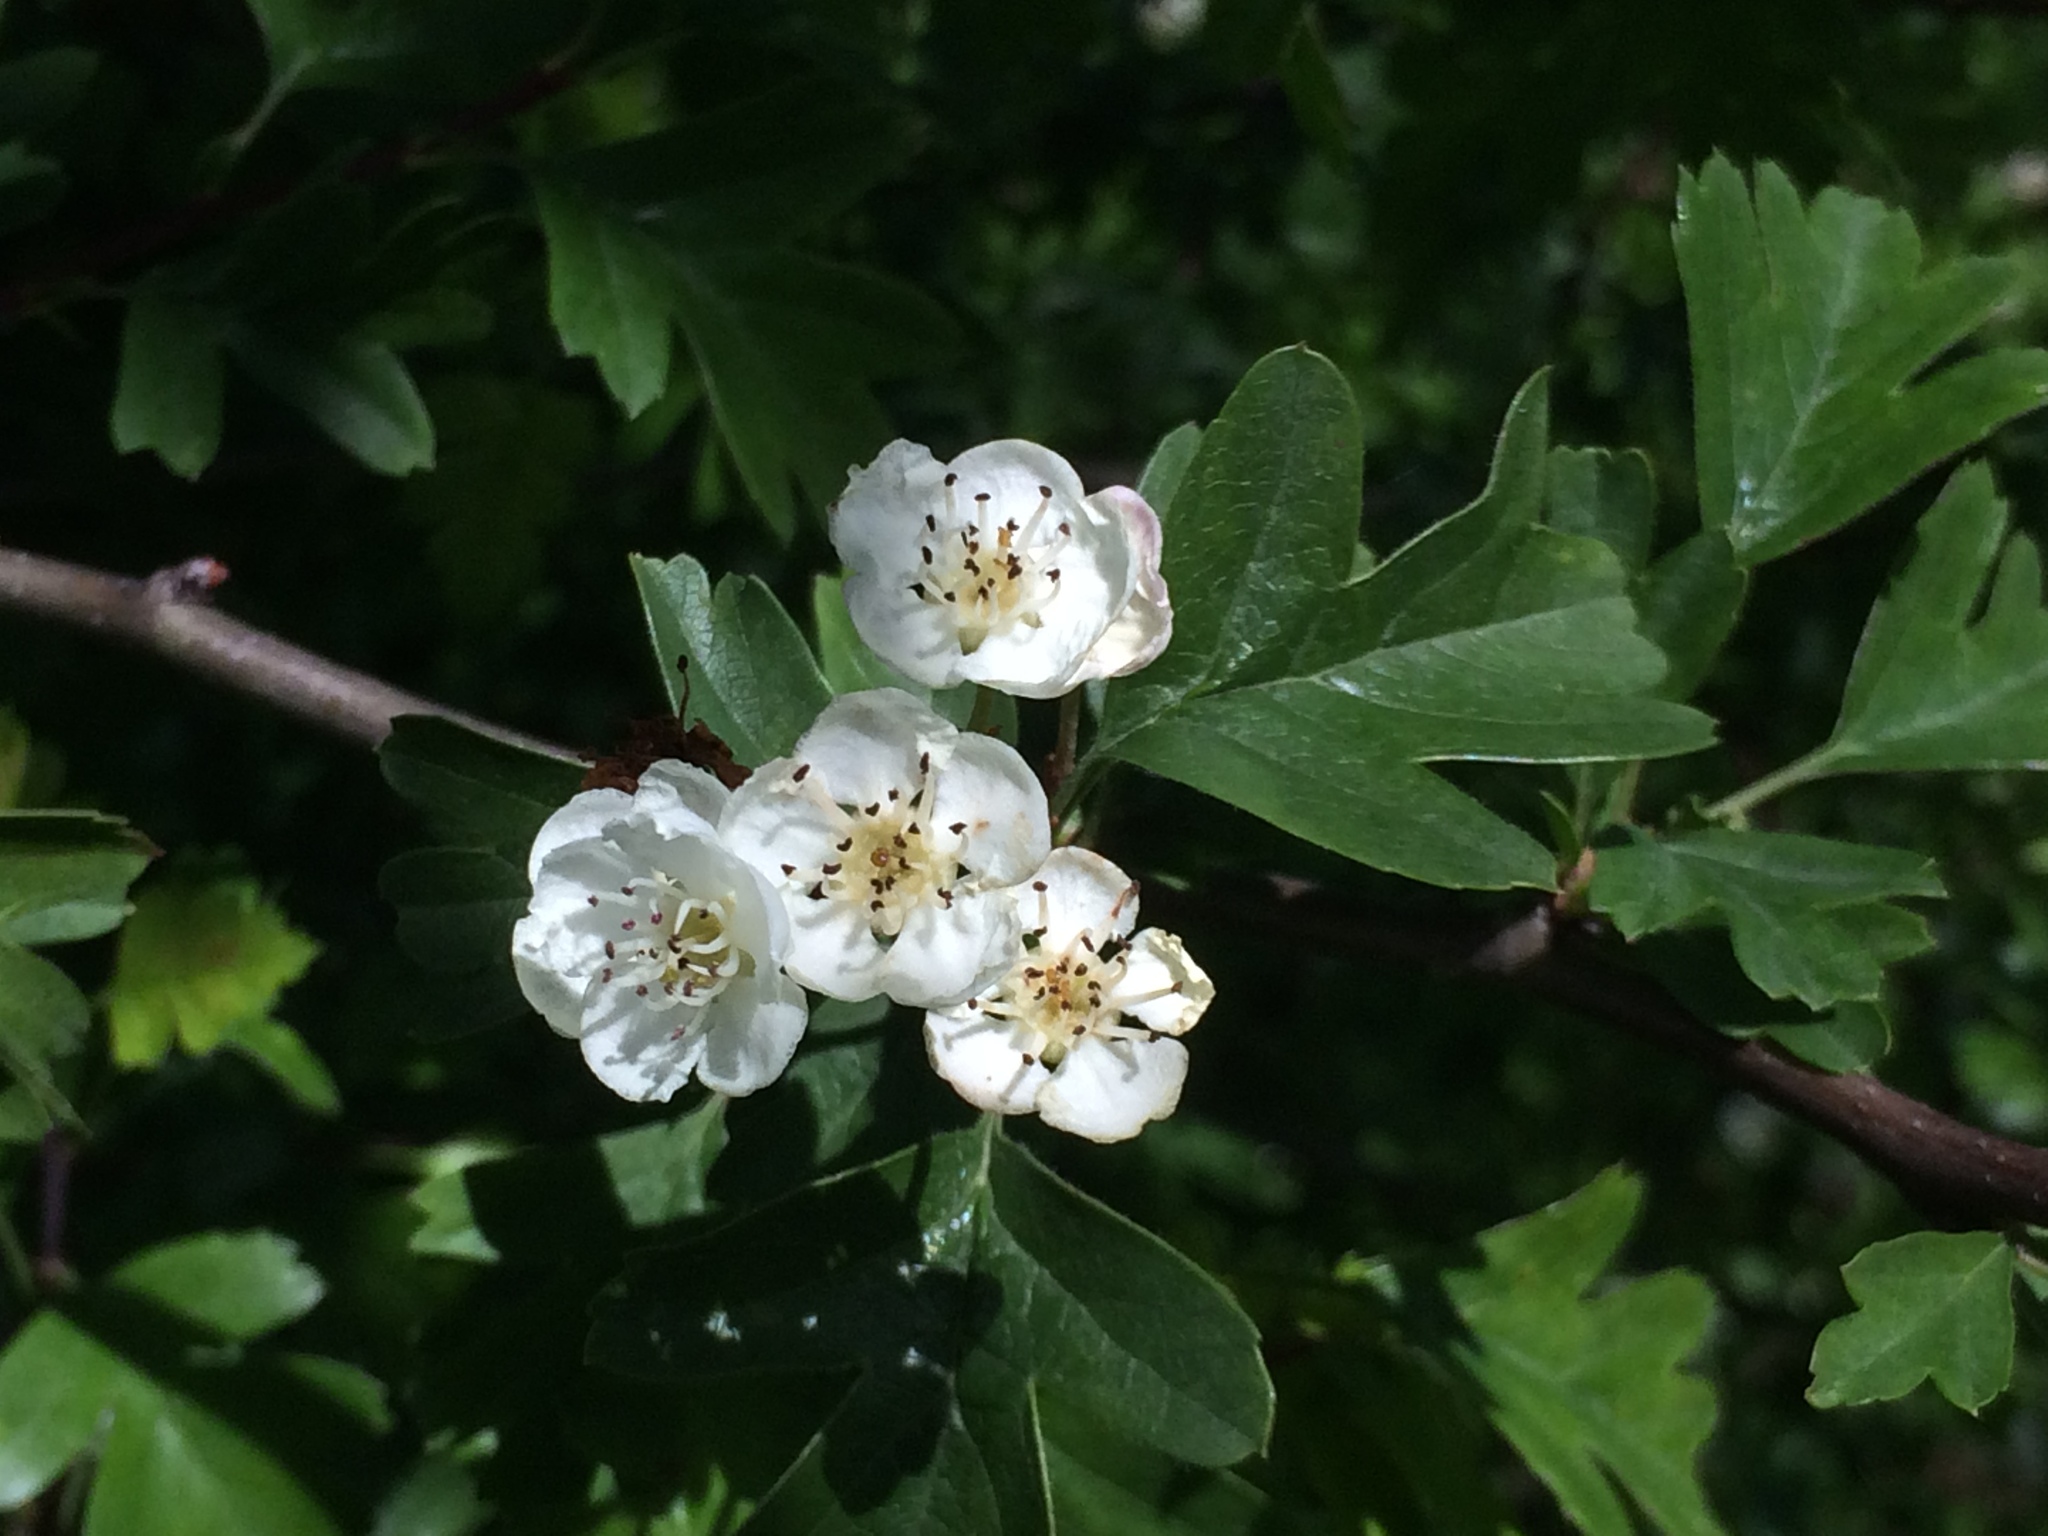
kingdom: Plantae
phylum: Tracheophyta
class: Magnoliopsida
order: Rosales
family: Rosaceae
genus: Crataegus
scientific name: Crataegus monogyna
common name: Hawthorn
